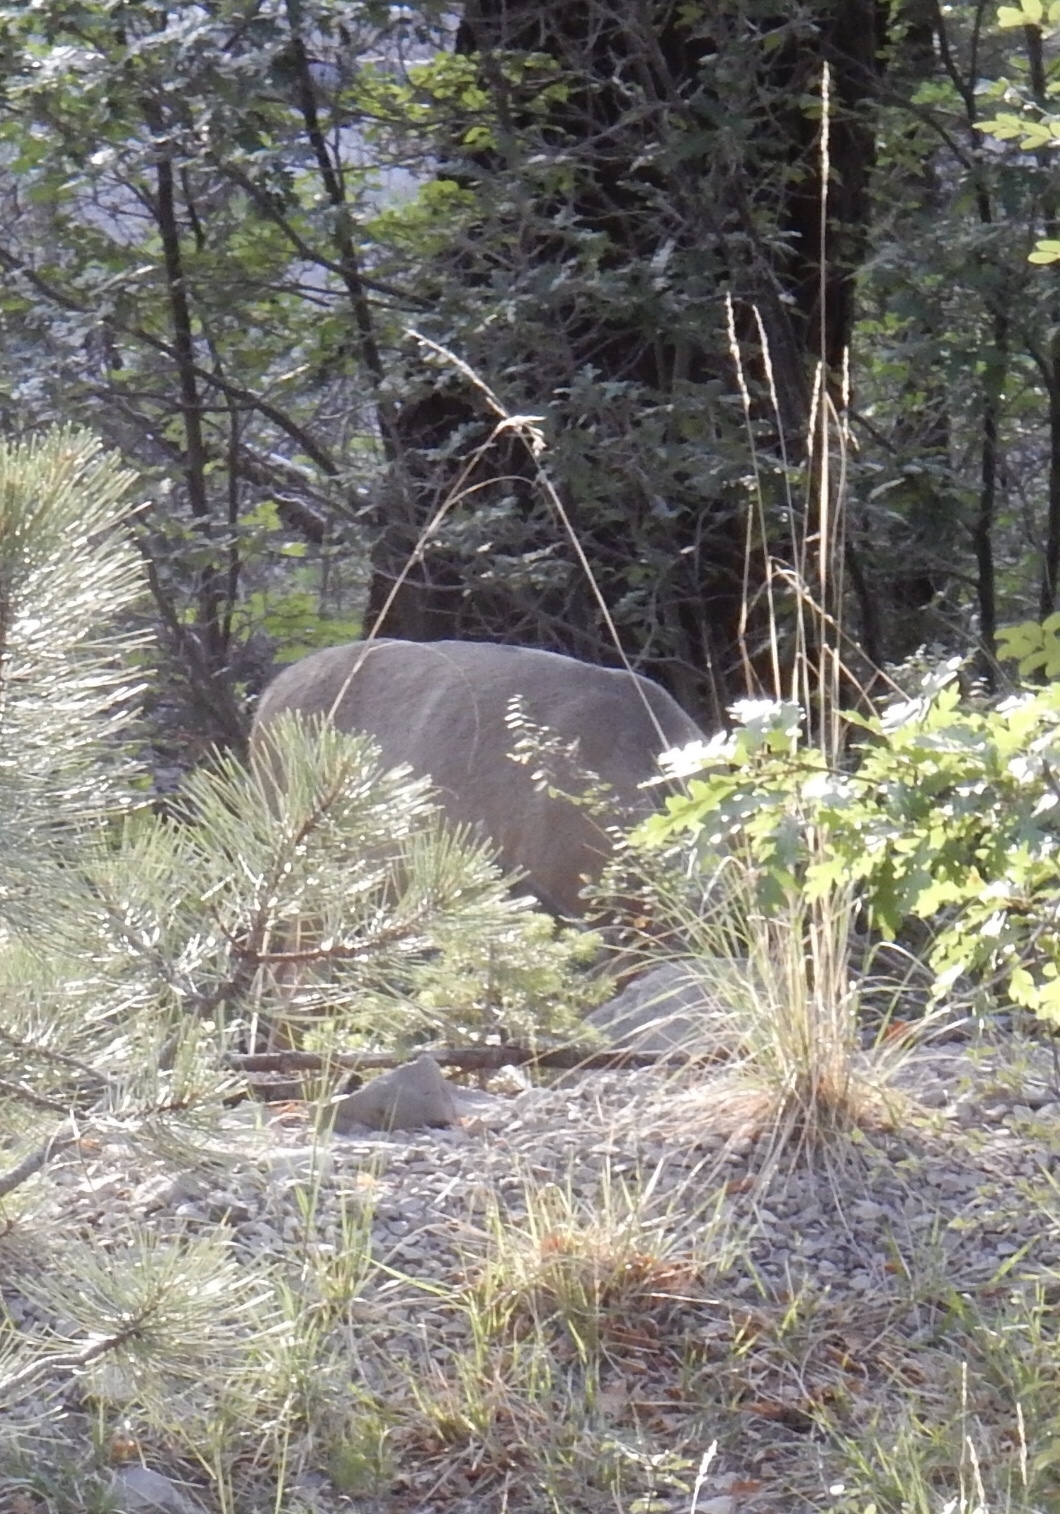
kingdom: Animalia
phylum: Chordata
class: Mammalia
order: Artiodactyla
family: Cervidae
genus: Odocoileus
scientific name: Odocoileus hemionus
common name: Mule deer
